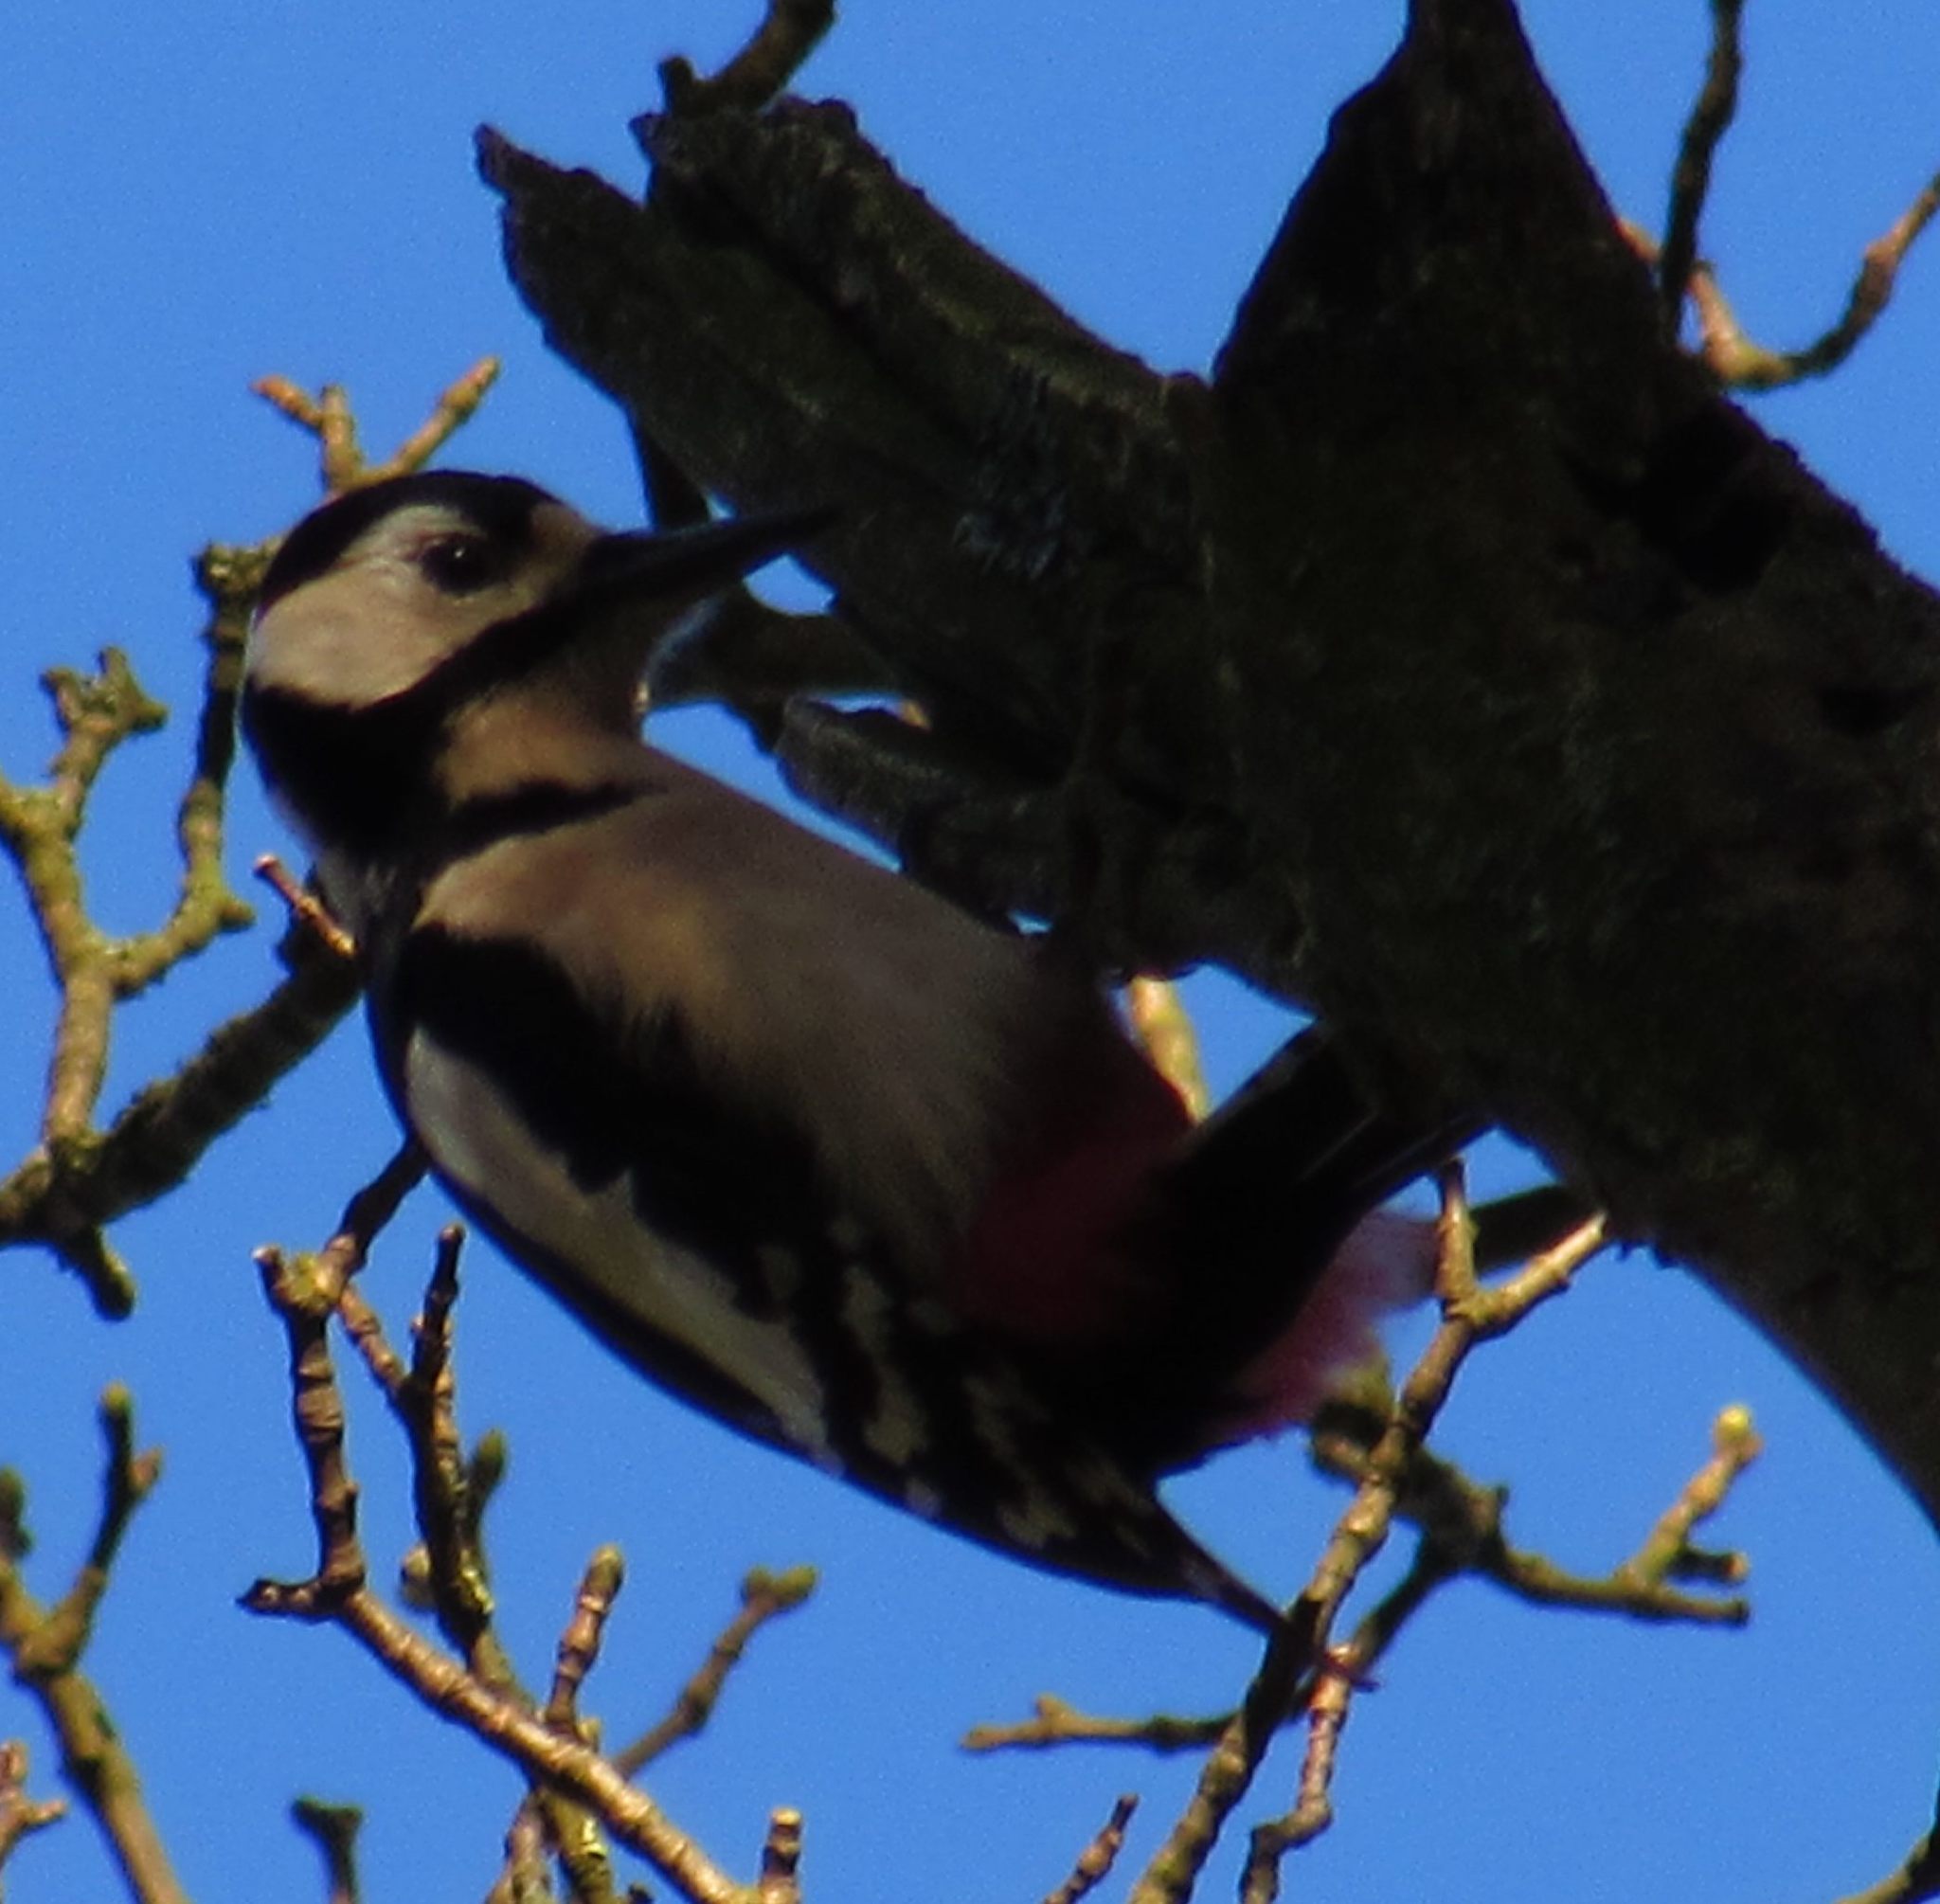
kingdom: Animalia
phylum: Chordata
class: Aves
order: Piciformes
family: Picidae
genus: Dendrocopos
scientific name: Dendrocopos major
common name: Great spotted woodpecker
